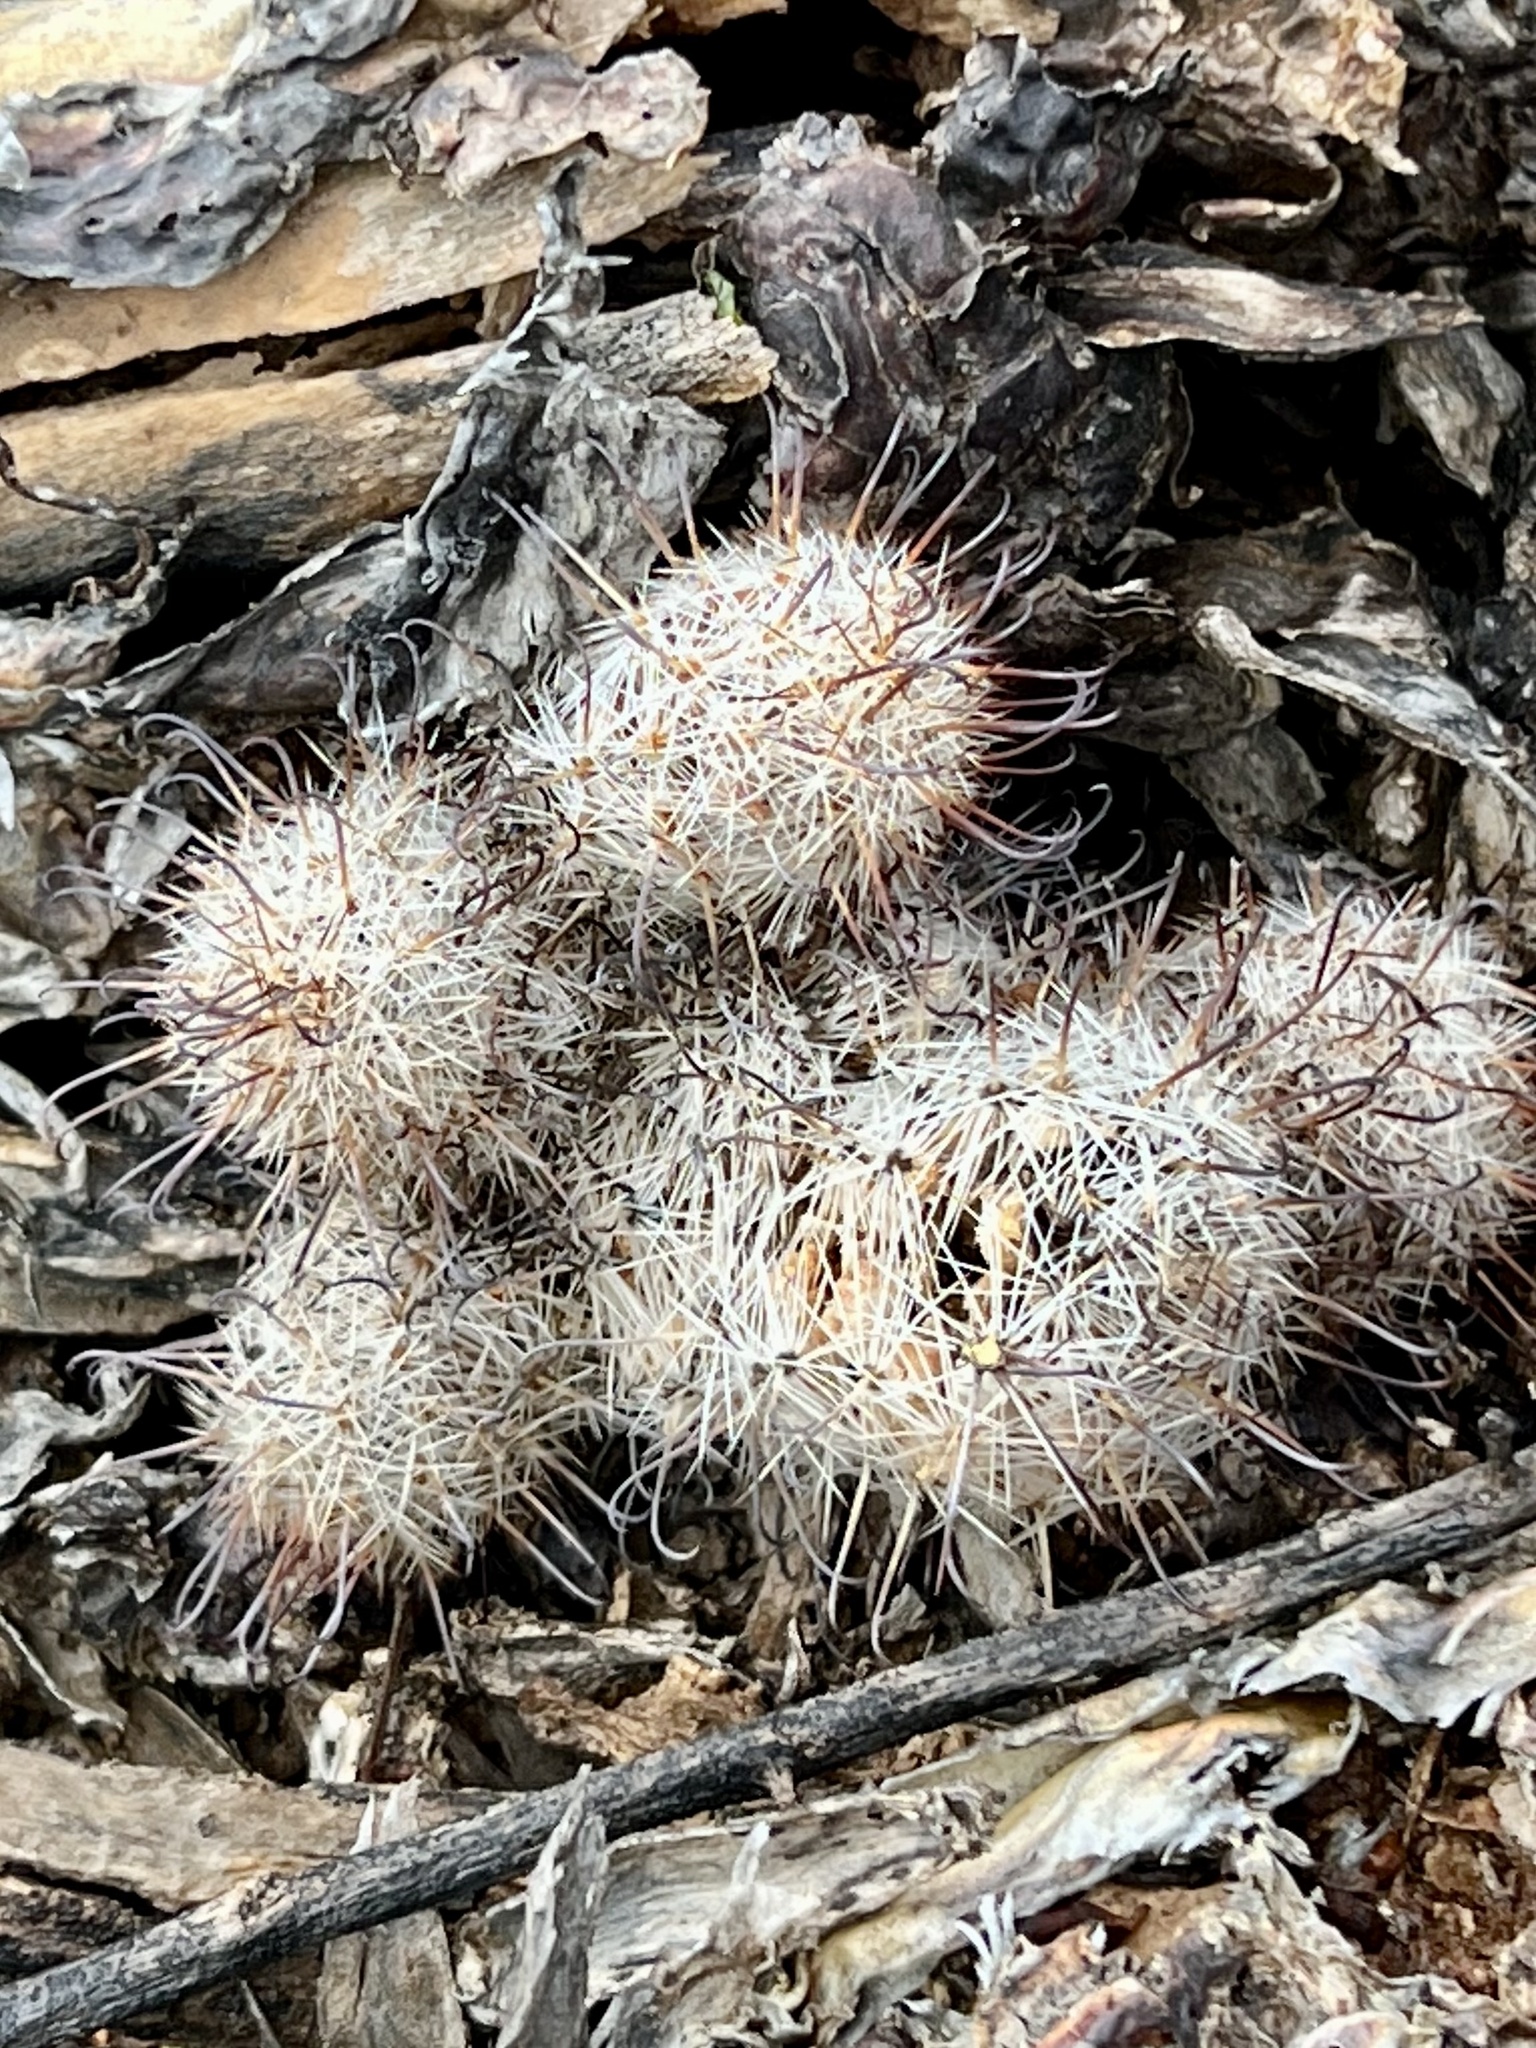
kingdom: Plantae
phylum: Tracheophyta
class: Magnoliopsida
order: Caryophyllales
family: Cactaceae
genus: Cochemiea
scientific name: Cochemiea grahamii
